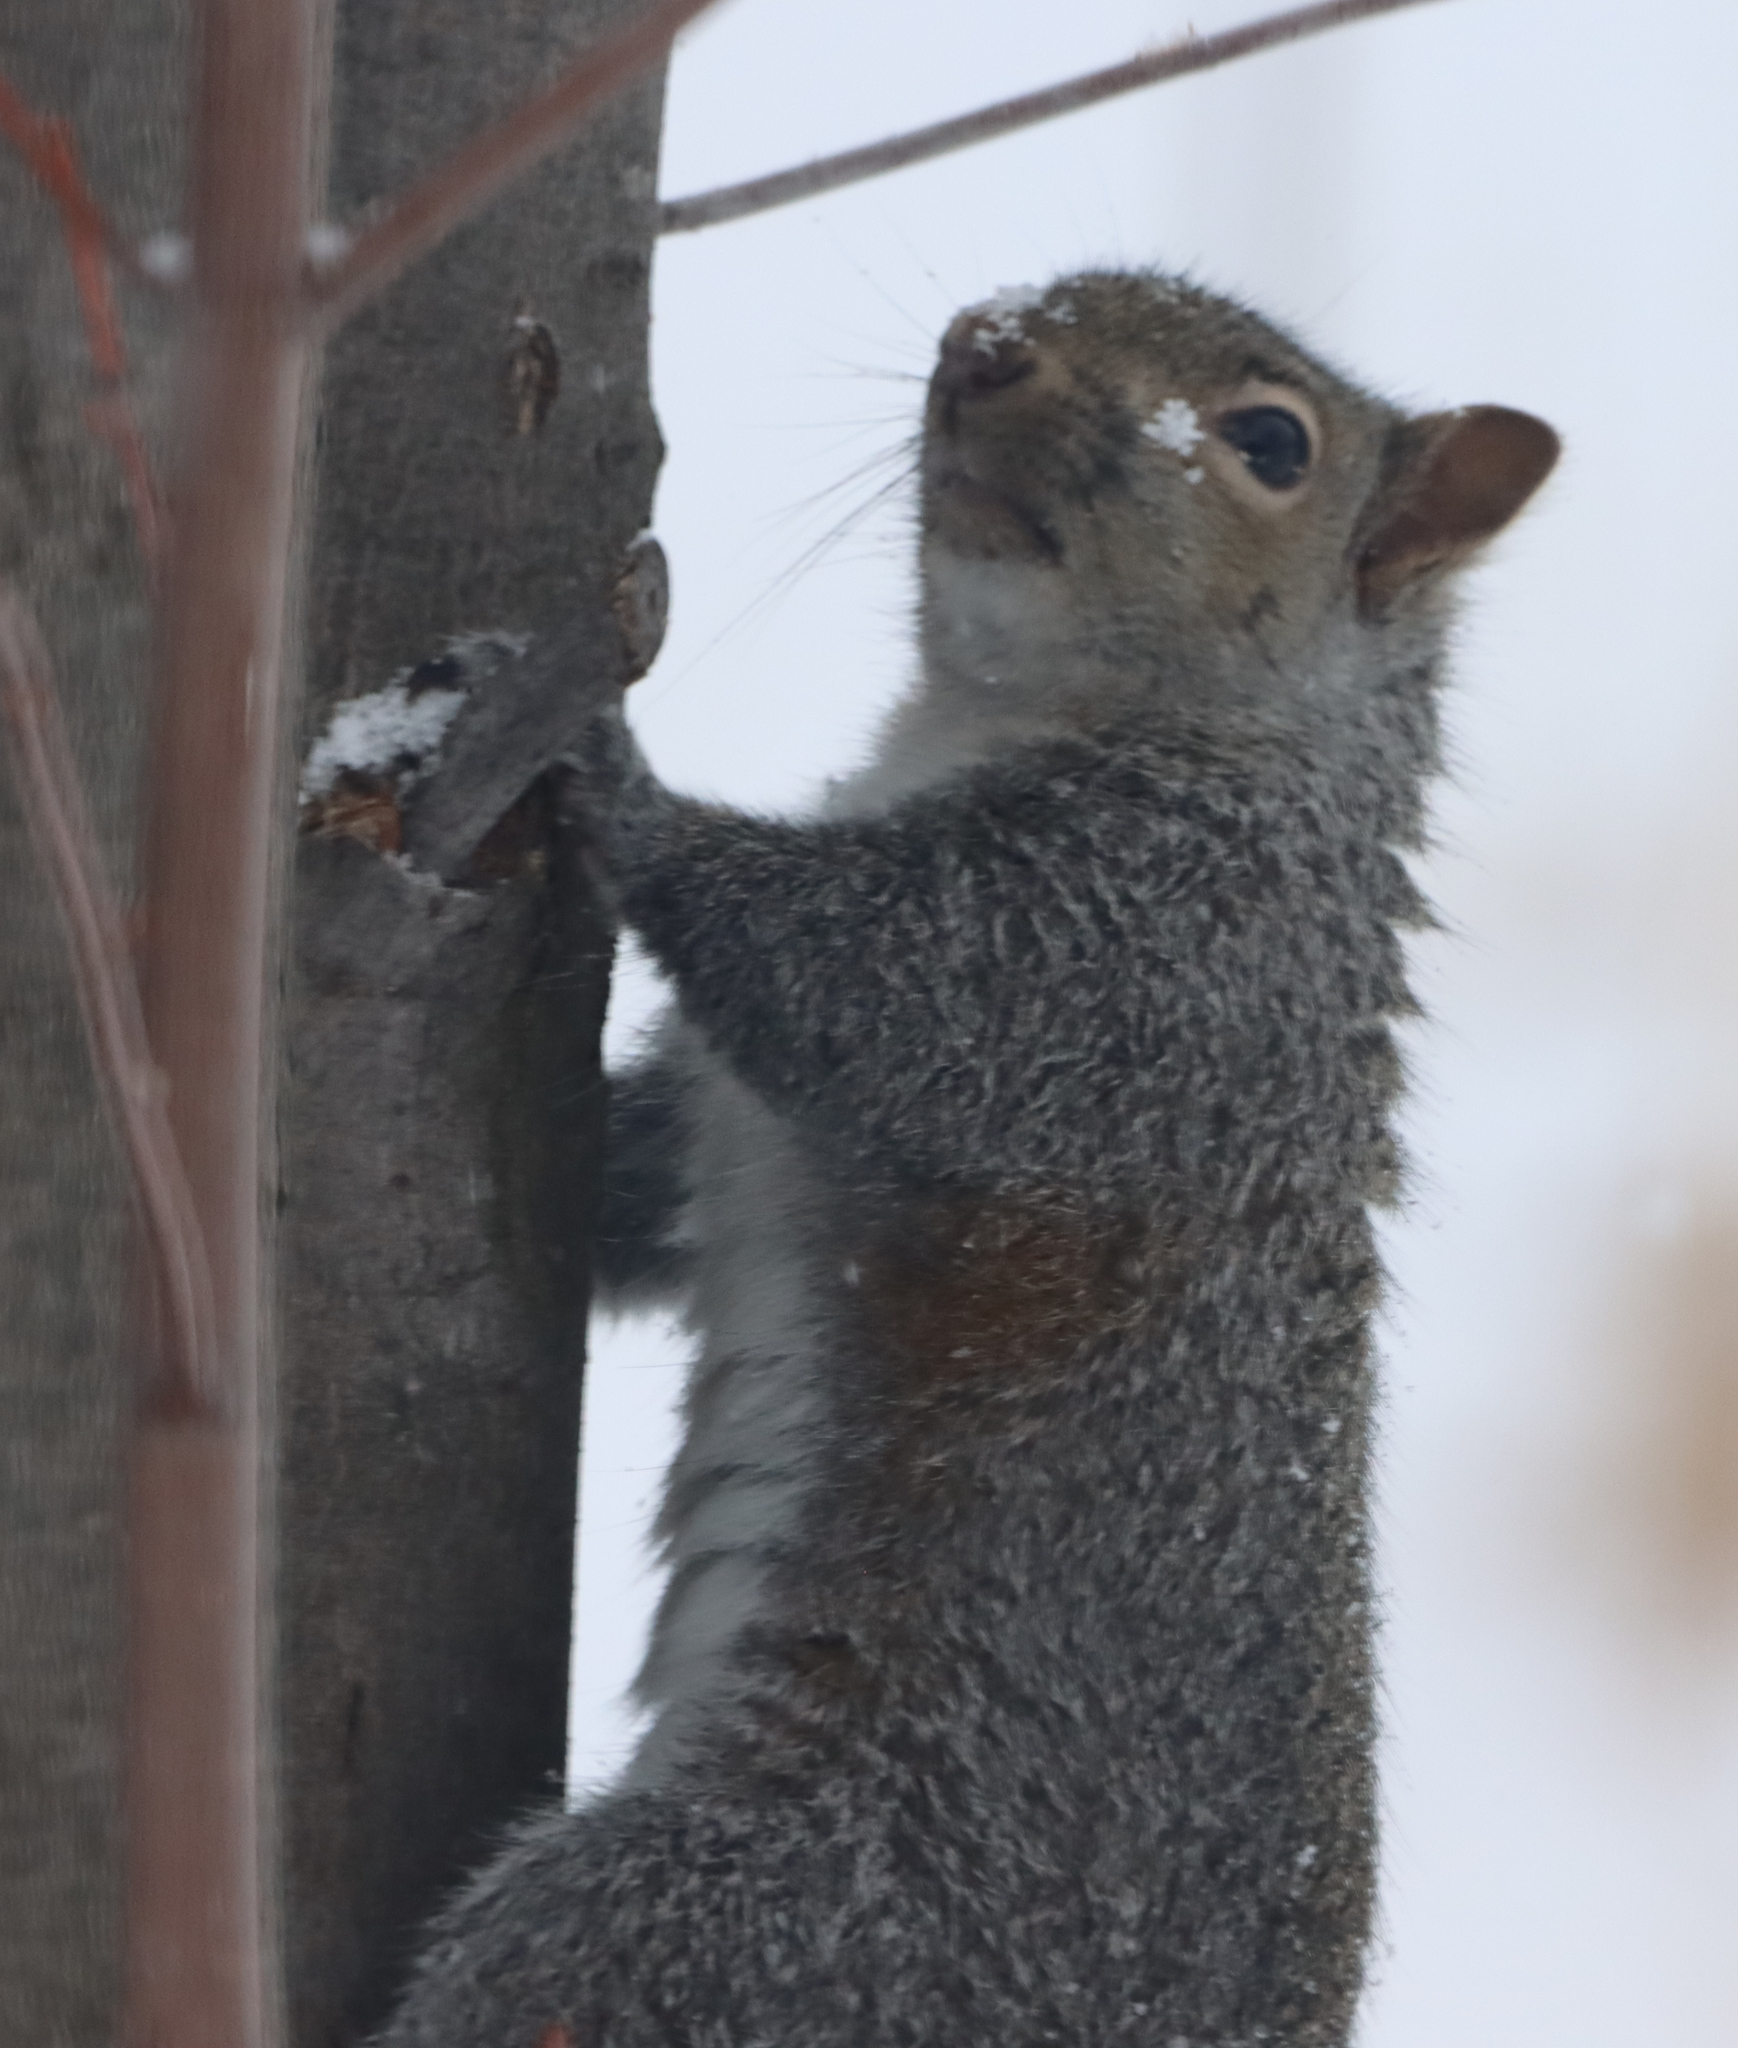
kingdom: Animalia
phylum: Chordata
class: Mammalia
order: Rodentia
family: Sciuridae
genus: Sciurus
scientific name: Sciurus carolinensis
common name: Eastern gray squirrel
